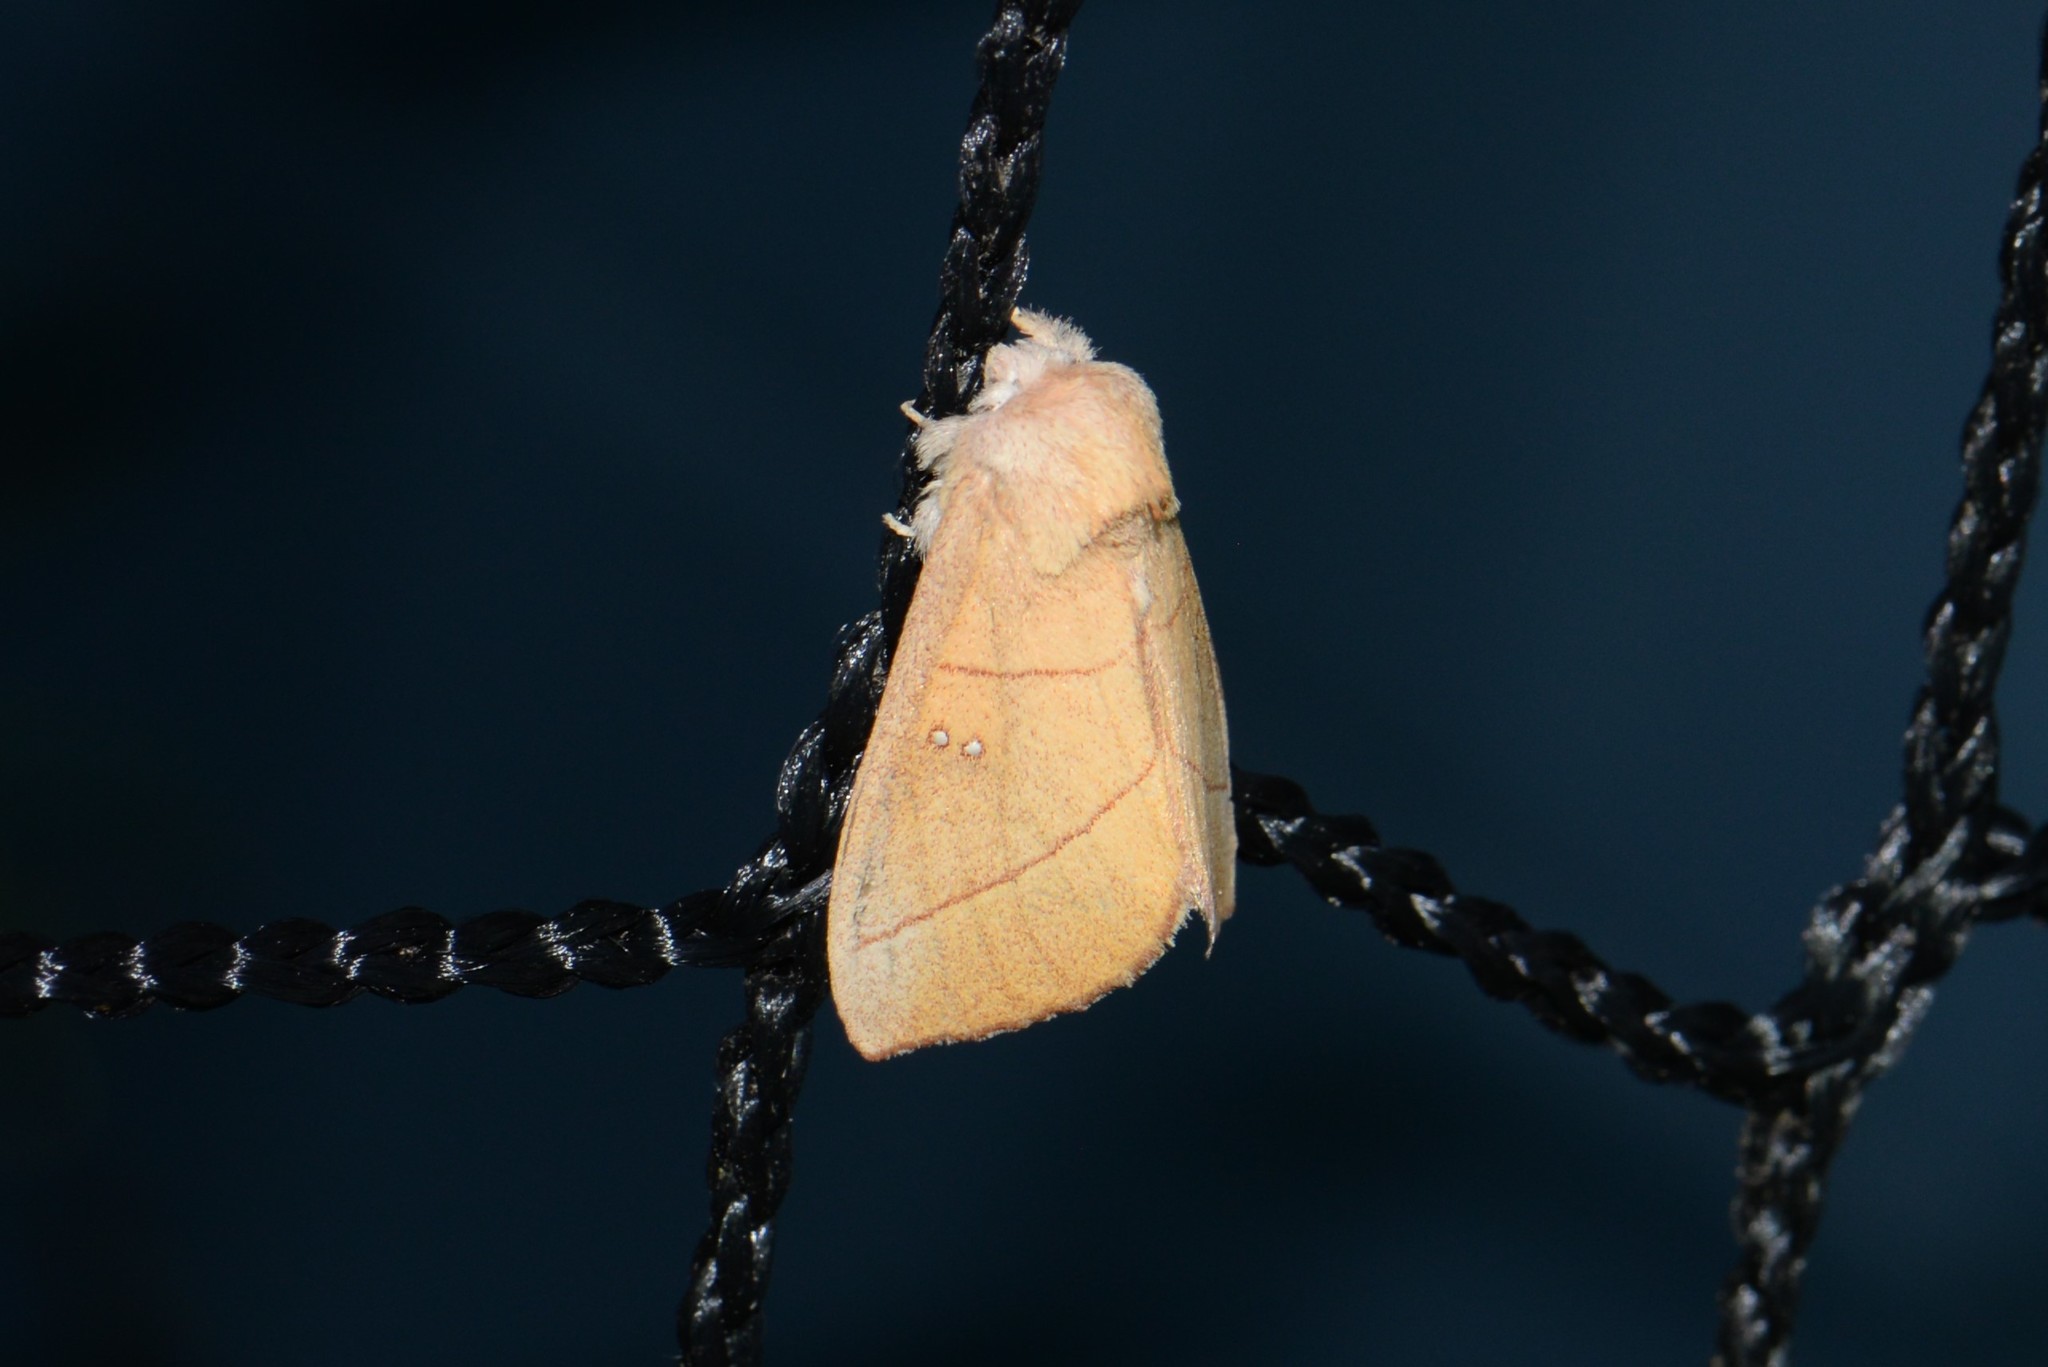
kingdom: Animalia
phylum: Arthropoda
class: Insecta
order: Lepidoptera
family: Notodontidae
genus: Nadata
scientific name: Nadata gibbosa
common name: White-dotted prominent
